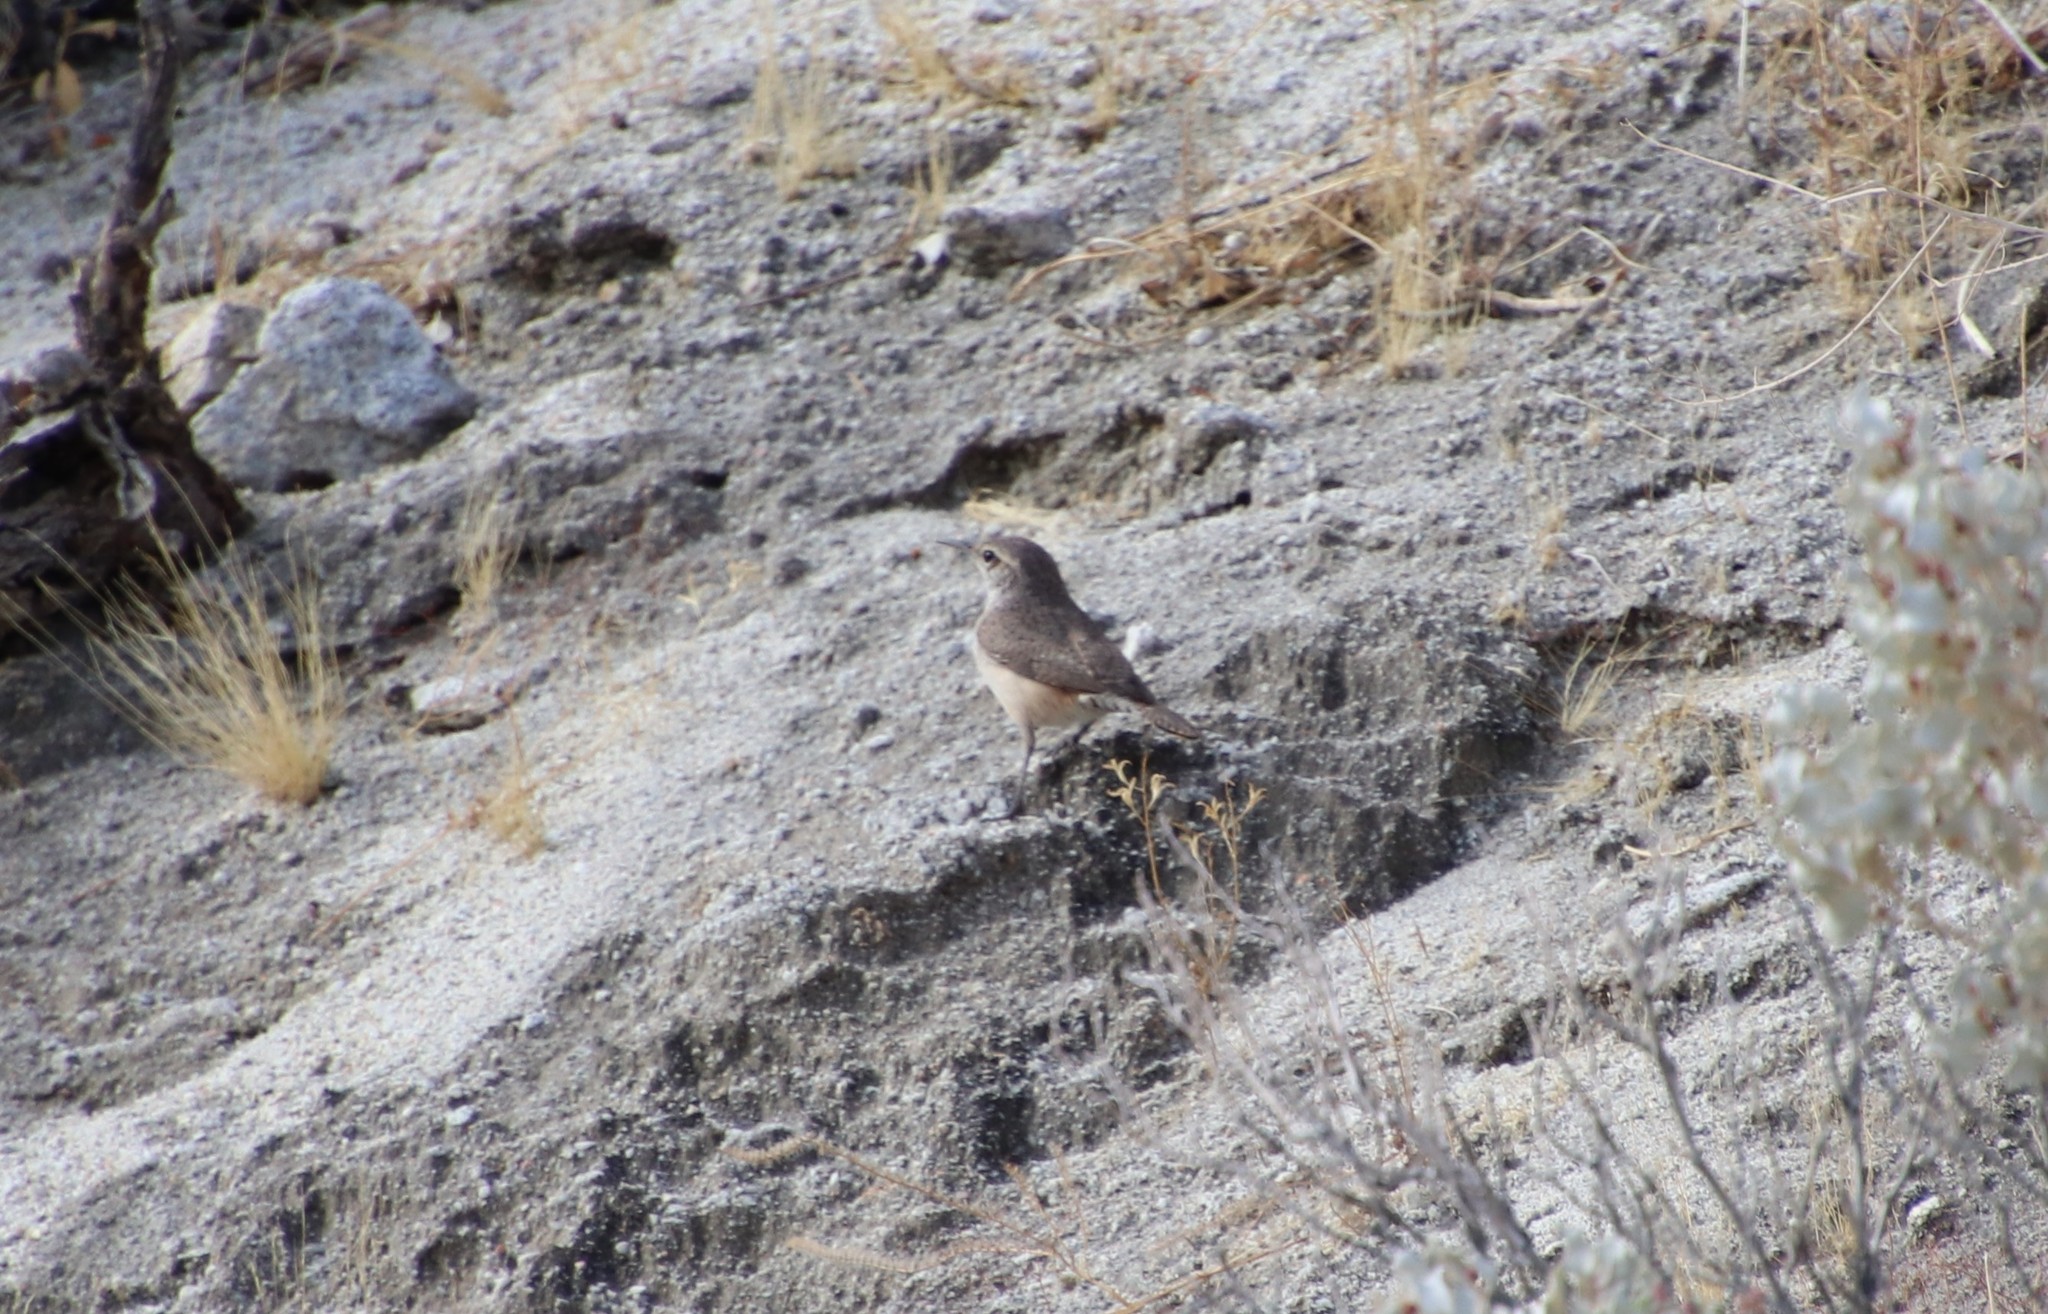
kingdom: Animalia
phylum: Chordata
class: Aves
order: Passeriformes
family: Troglodytidae
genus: Salpinctes
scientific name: Salpinctes obsoletus
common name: Rock wren
